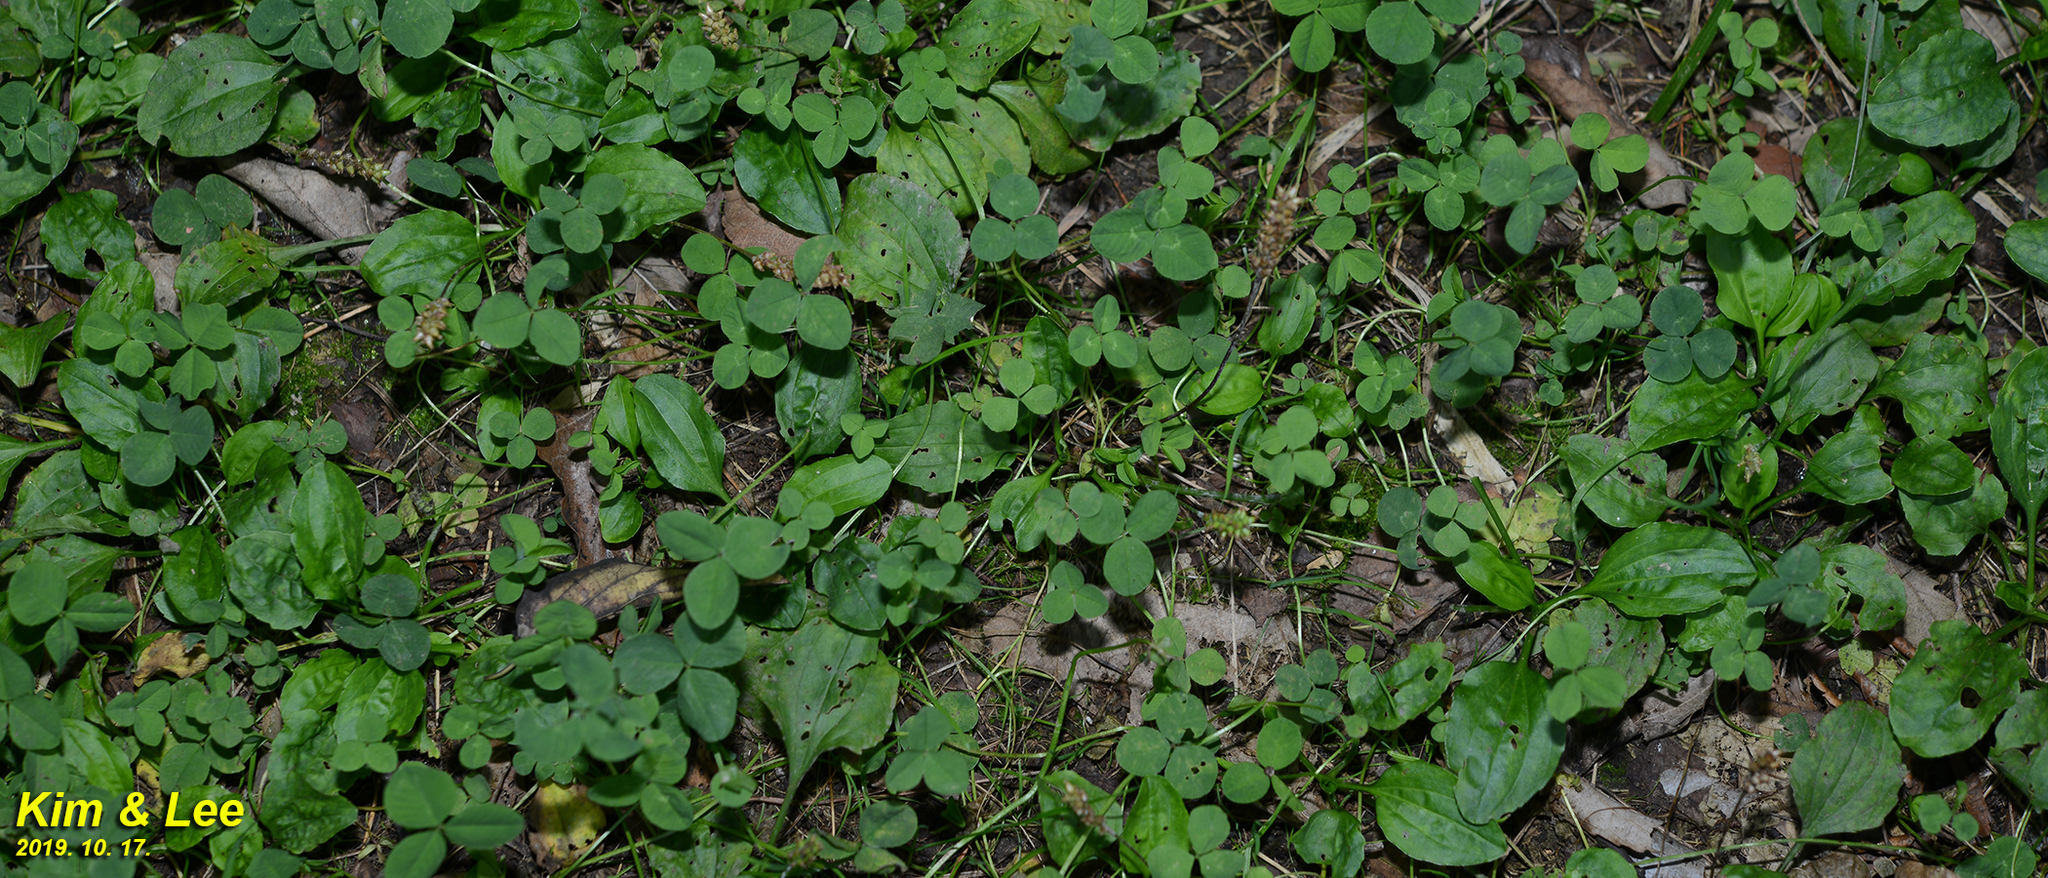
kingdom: Plantae
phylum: Tracheophyta
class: Magnoliopsida
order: Fabales
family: Fabaceae
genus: Trifolium
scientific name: Trifolium repens
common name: White clover
